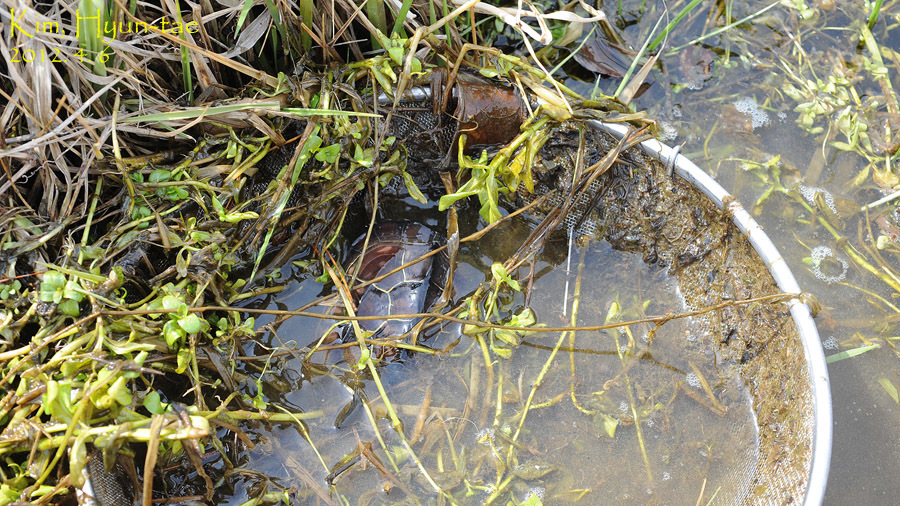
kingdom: Animalia
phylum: Chordata
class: Testudines
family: Geoemydidae
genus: Mauremys
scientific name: Mauremys reevesii
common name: Chinese pond turtle
